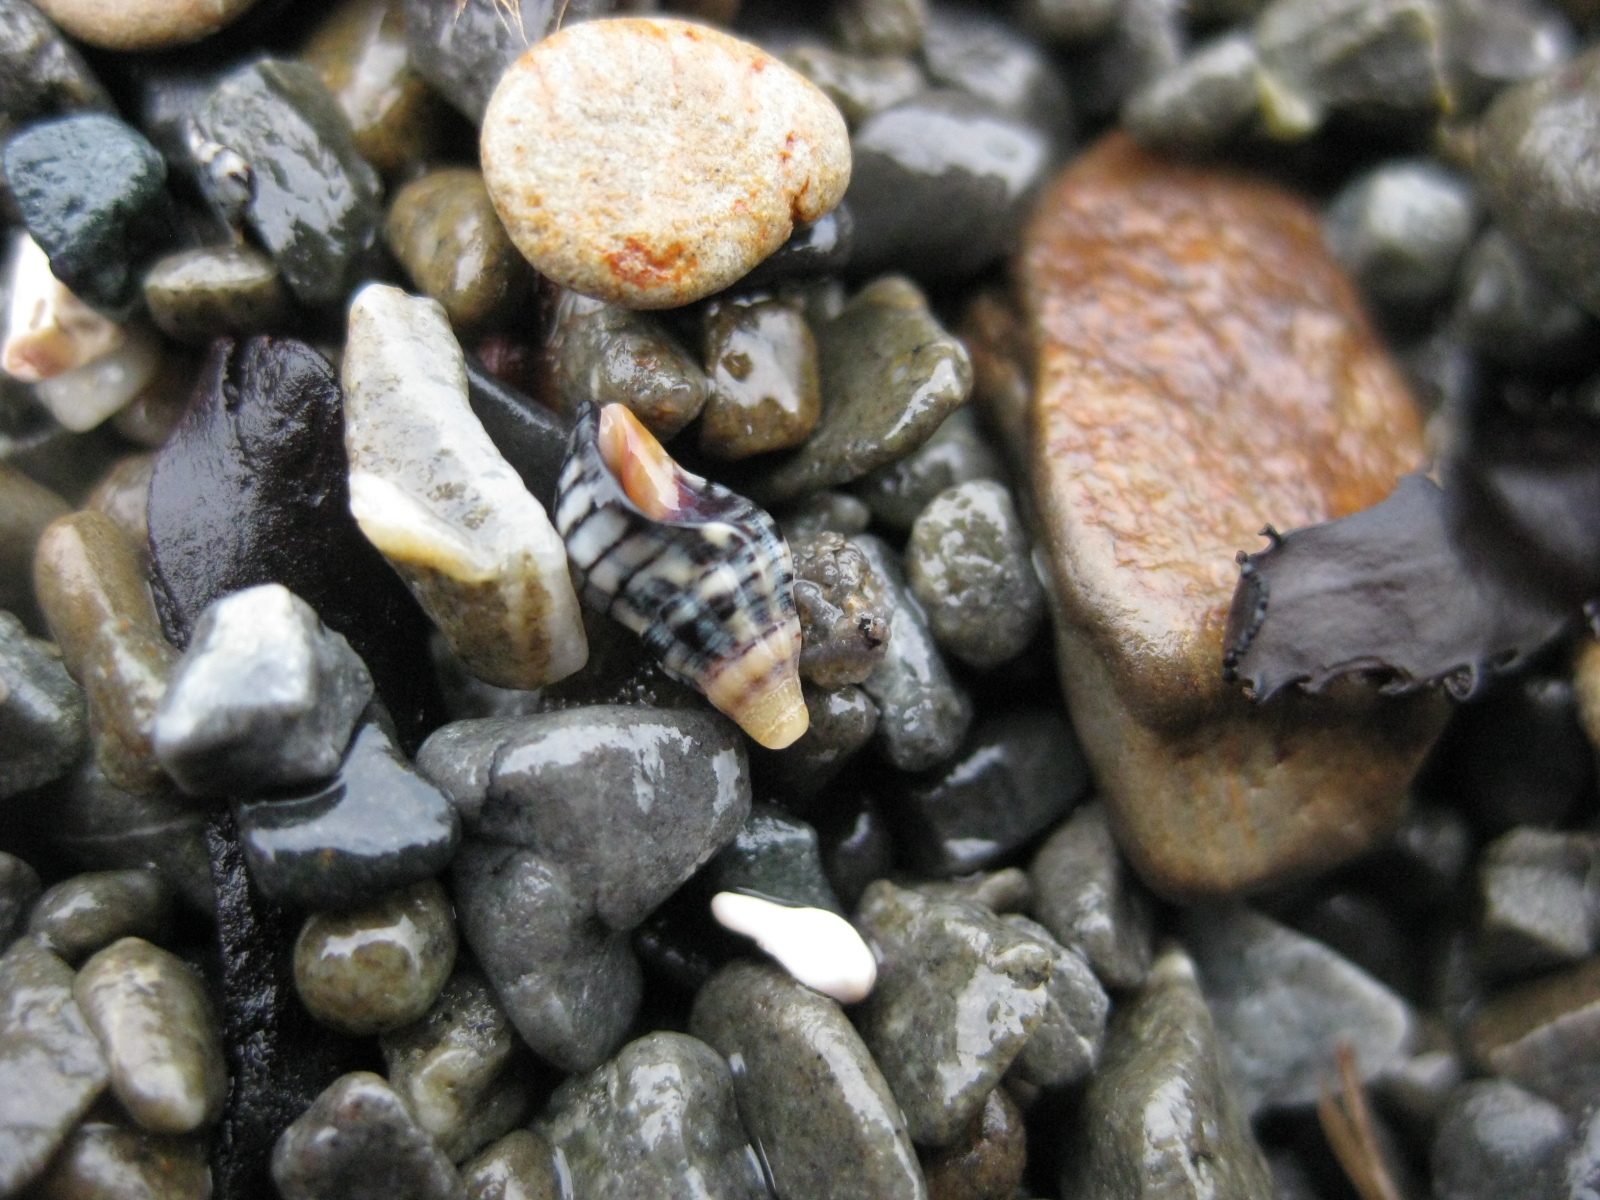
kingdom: Animalia
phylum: Mollusca
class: Gastropoda
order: Neogastropoda
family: Cominellidae
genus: Cominella
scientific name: Cominella virgata
